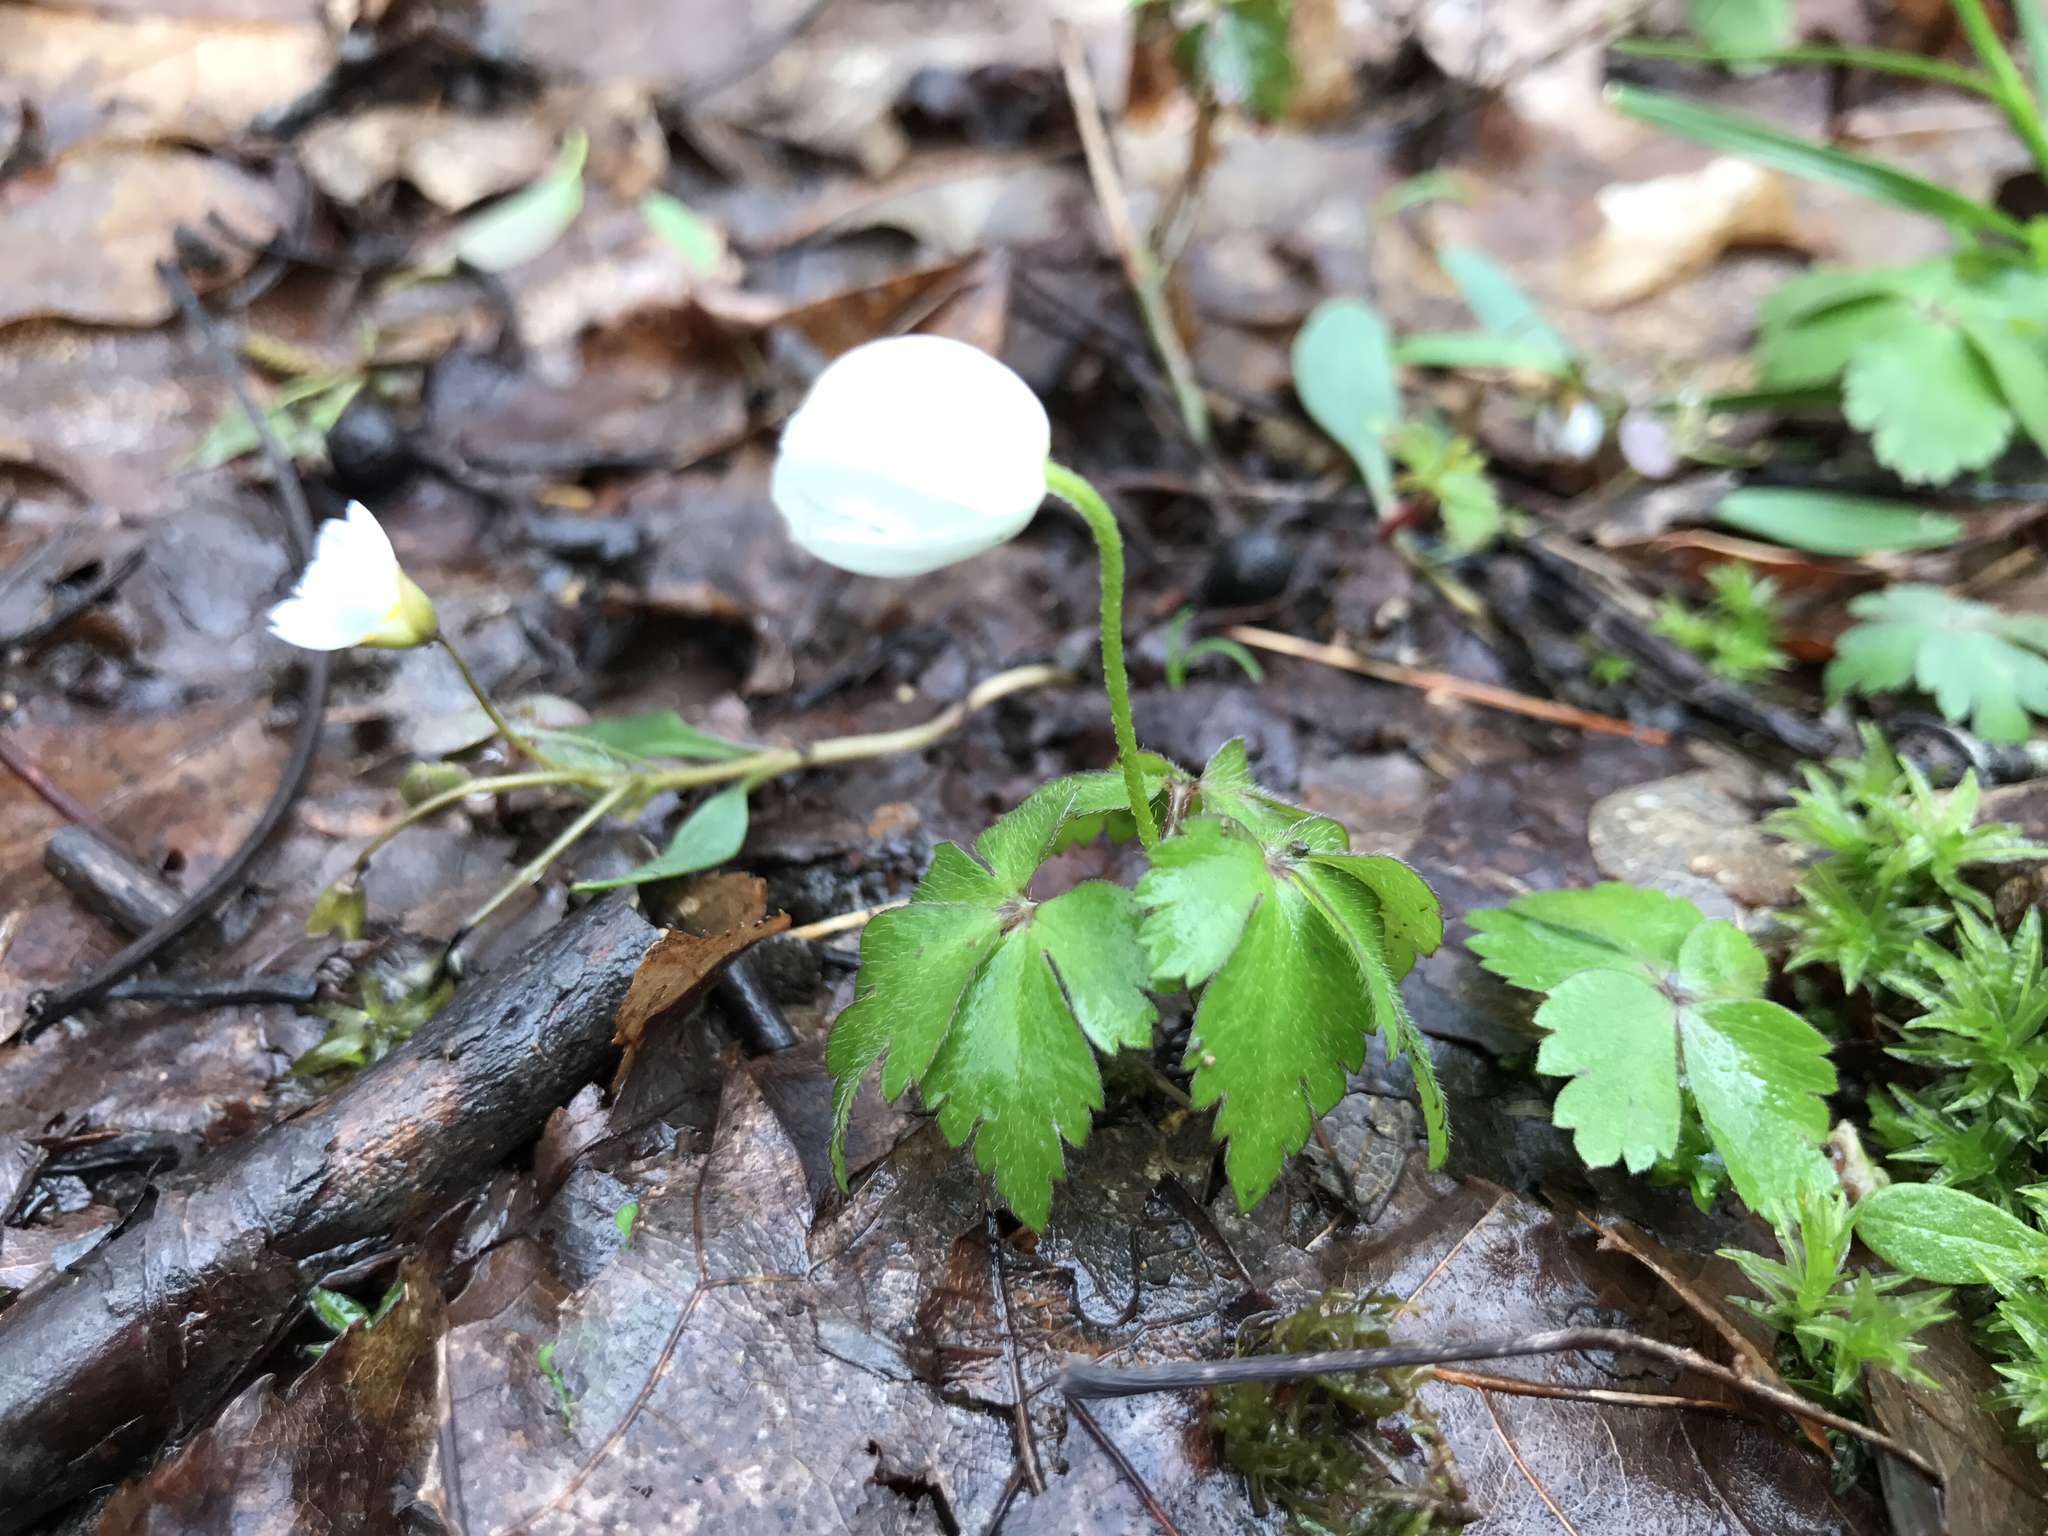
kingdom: Plantae
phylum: Tracheophyta
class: Magnoliopsida
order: Ranunculales
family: Ranunculaceae
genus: Anemone
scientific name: Anemone quinquefolia
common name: Wood anemone
